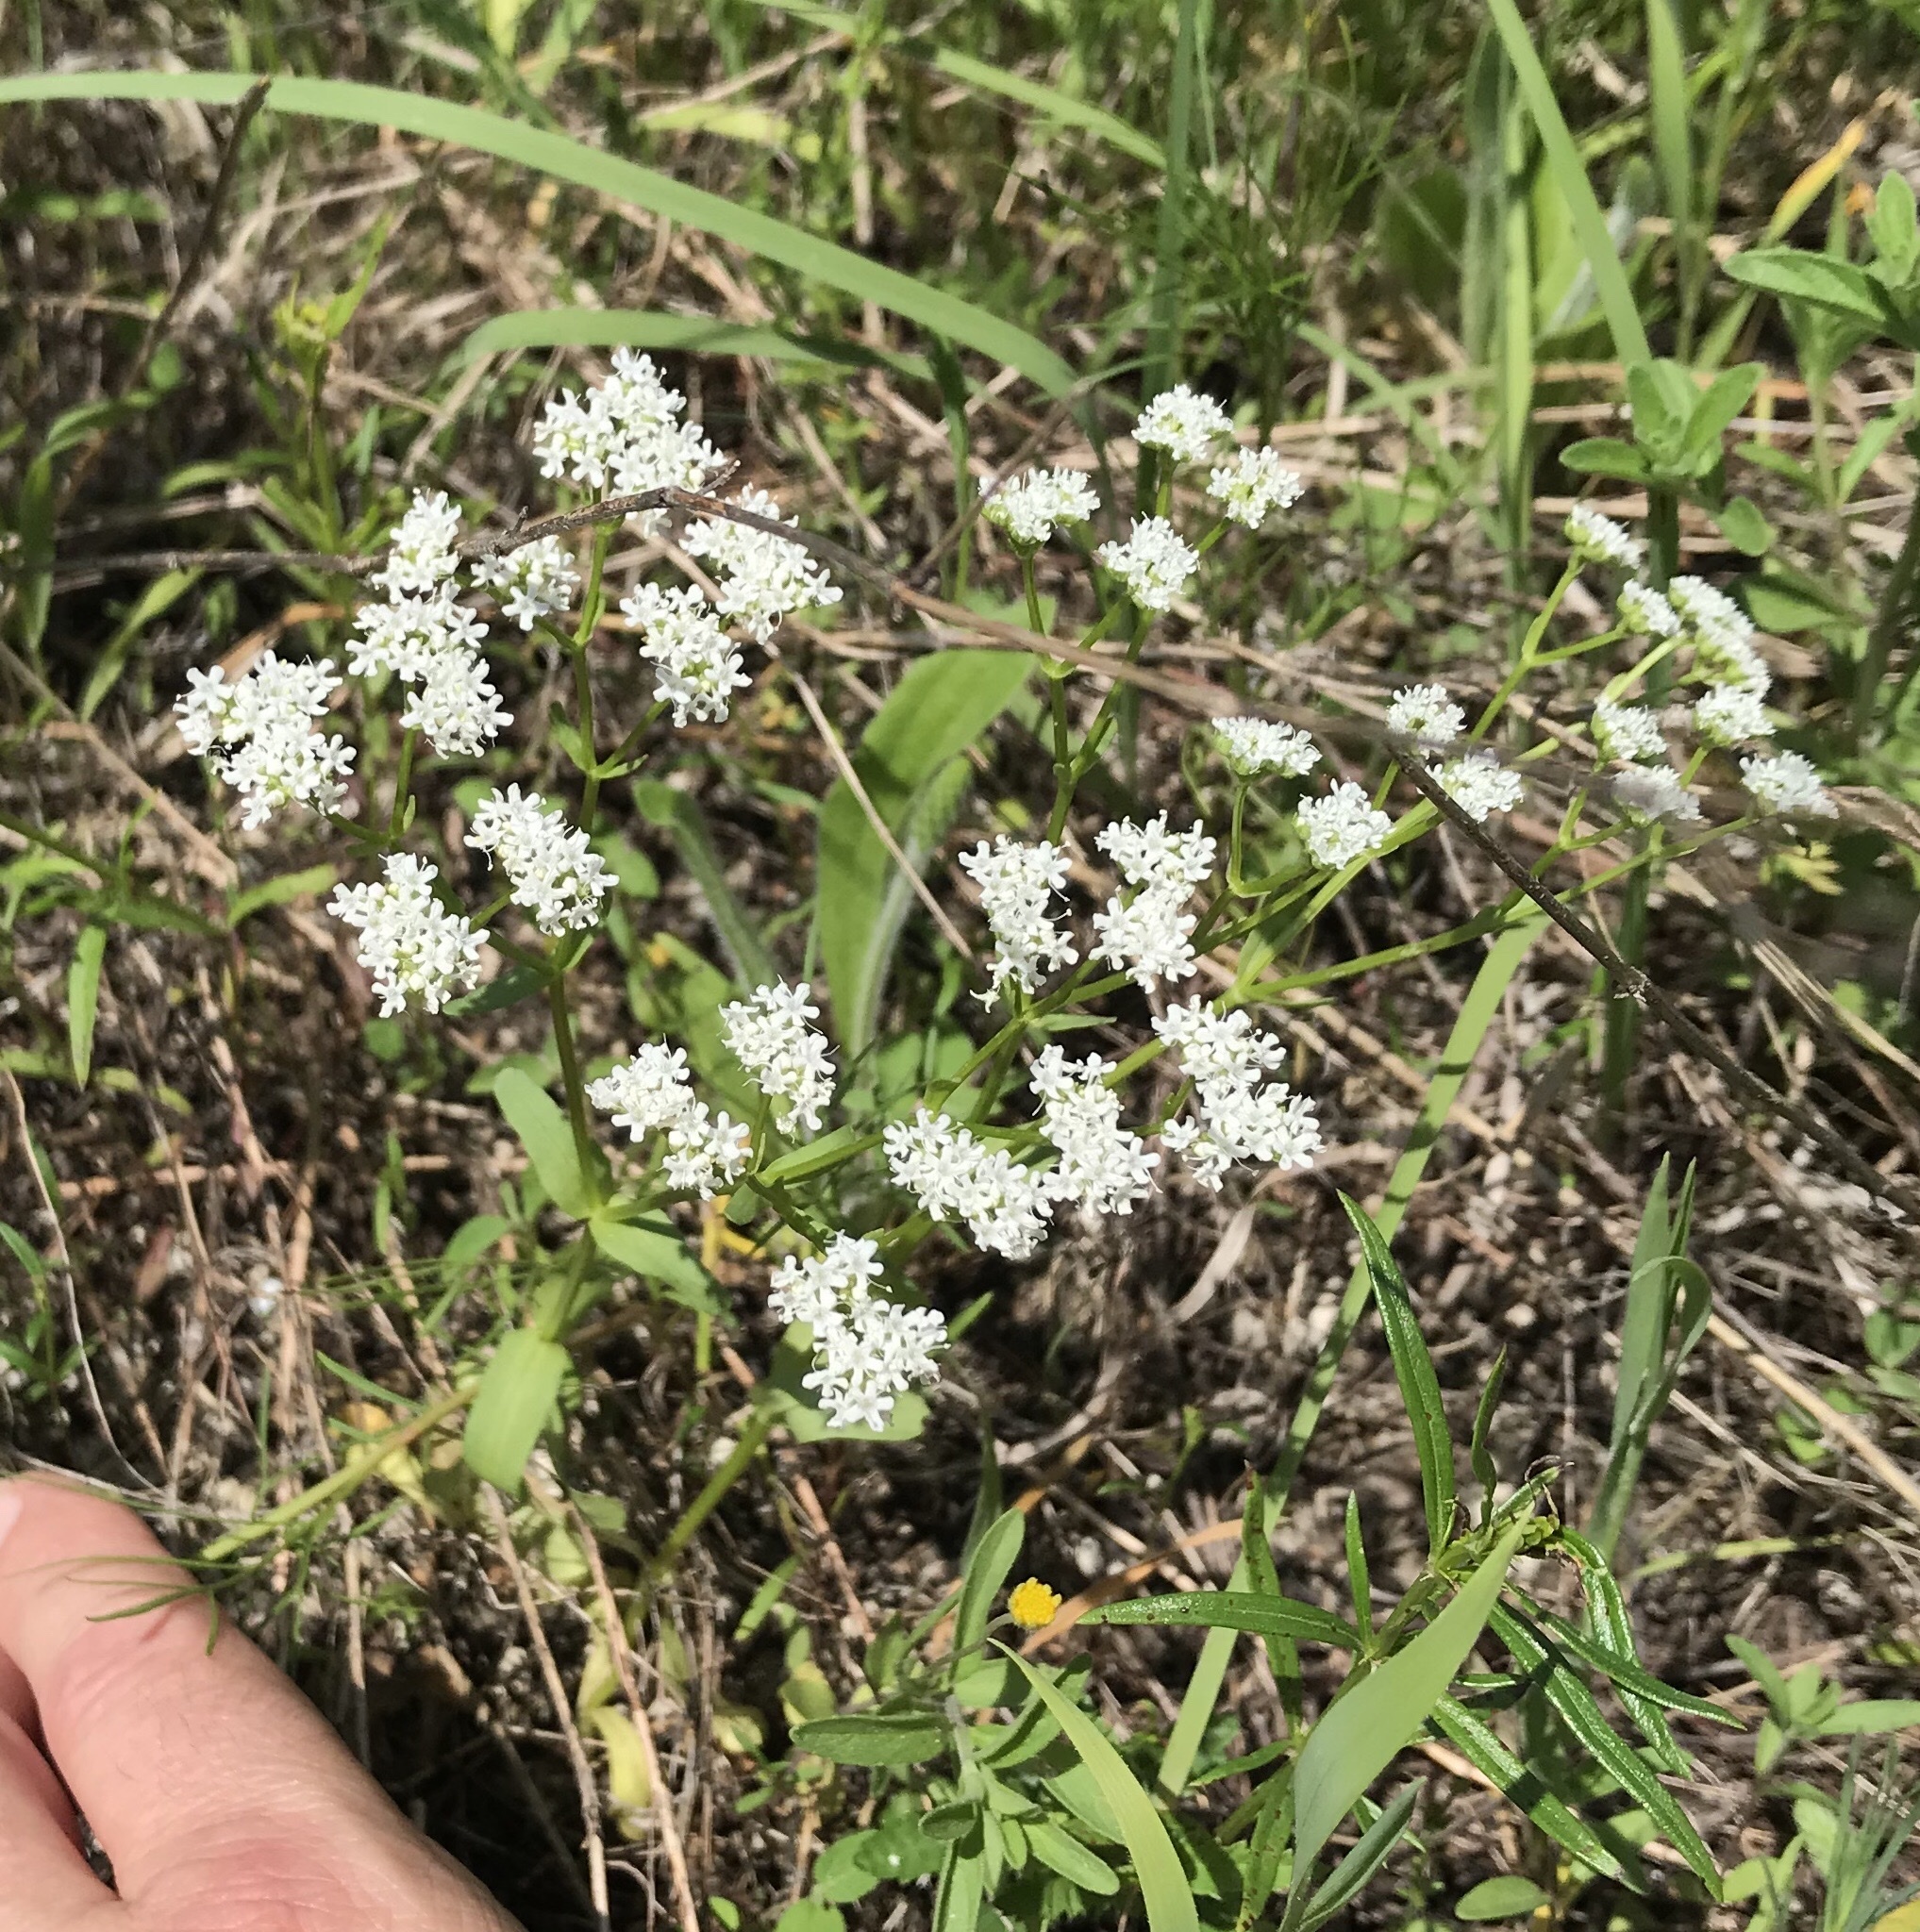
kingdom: Plantae
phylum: Tracheophyta
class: Magnoliopsida
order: Dipsacales
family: Caprifoliaceae
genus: Valerianella
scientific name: Valerianella amarella
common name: Hariy cornsalad
